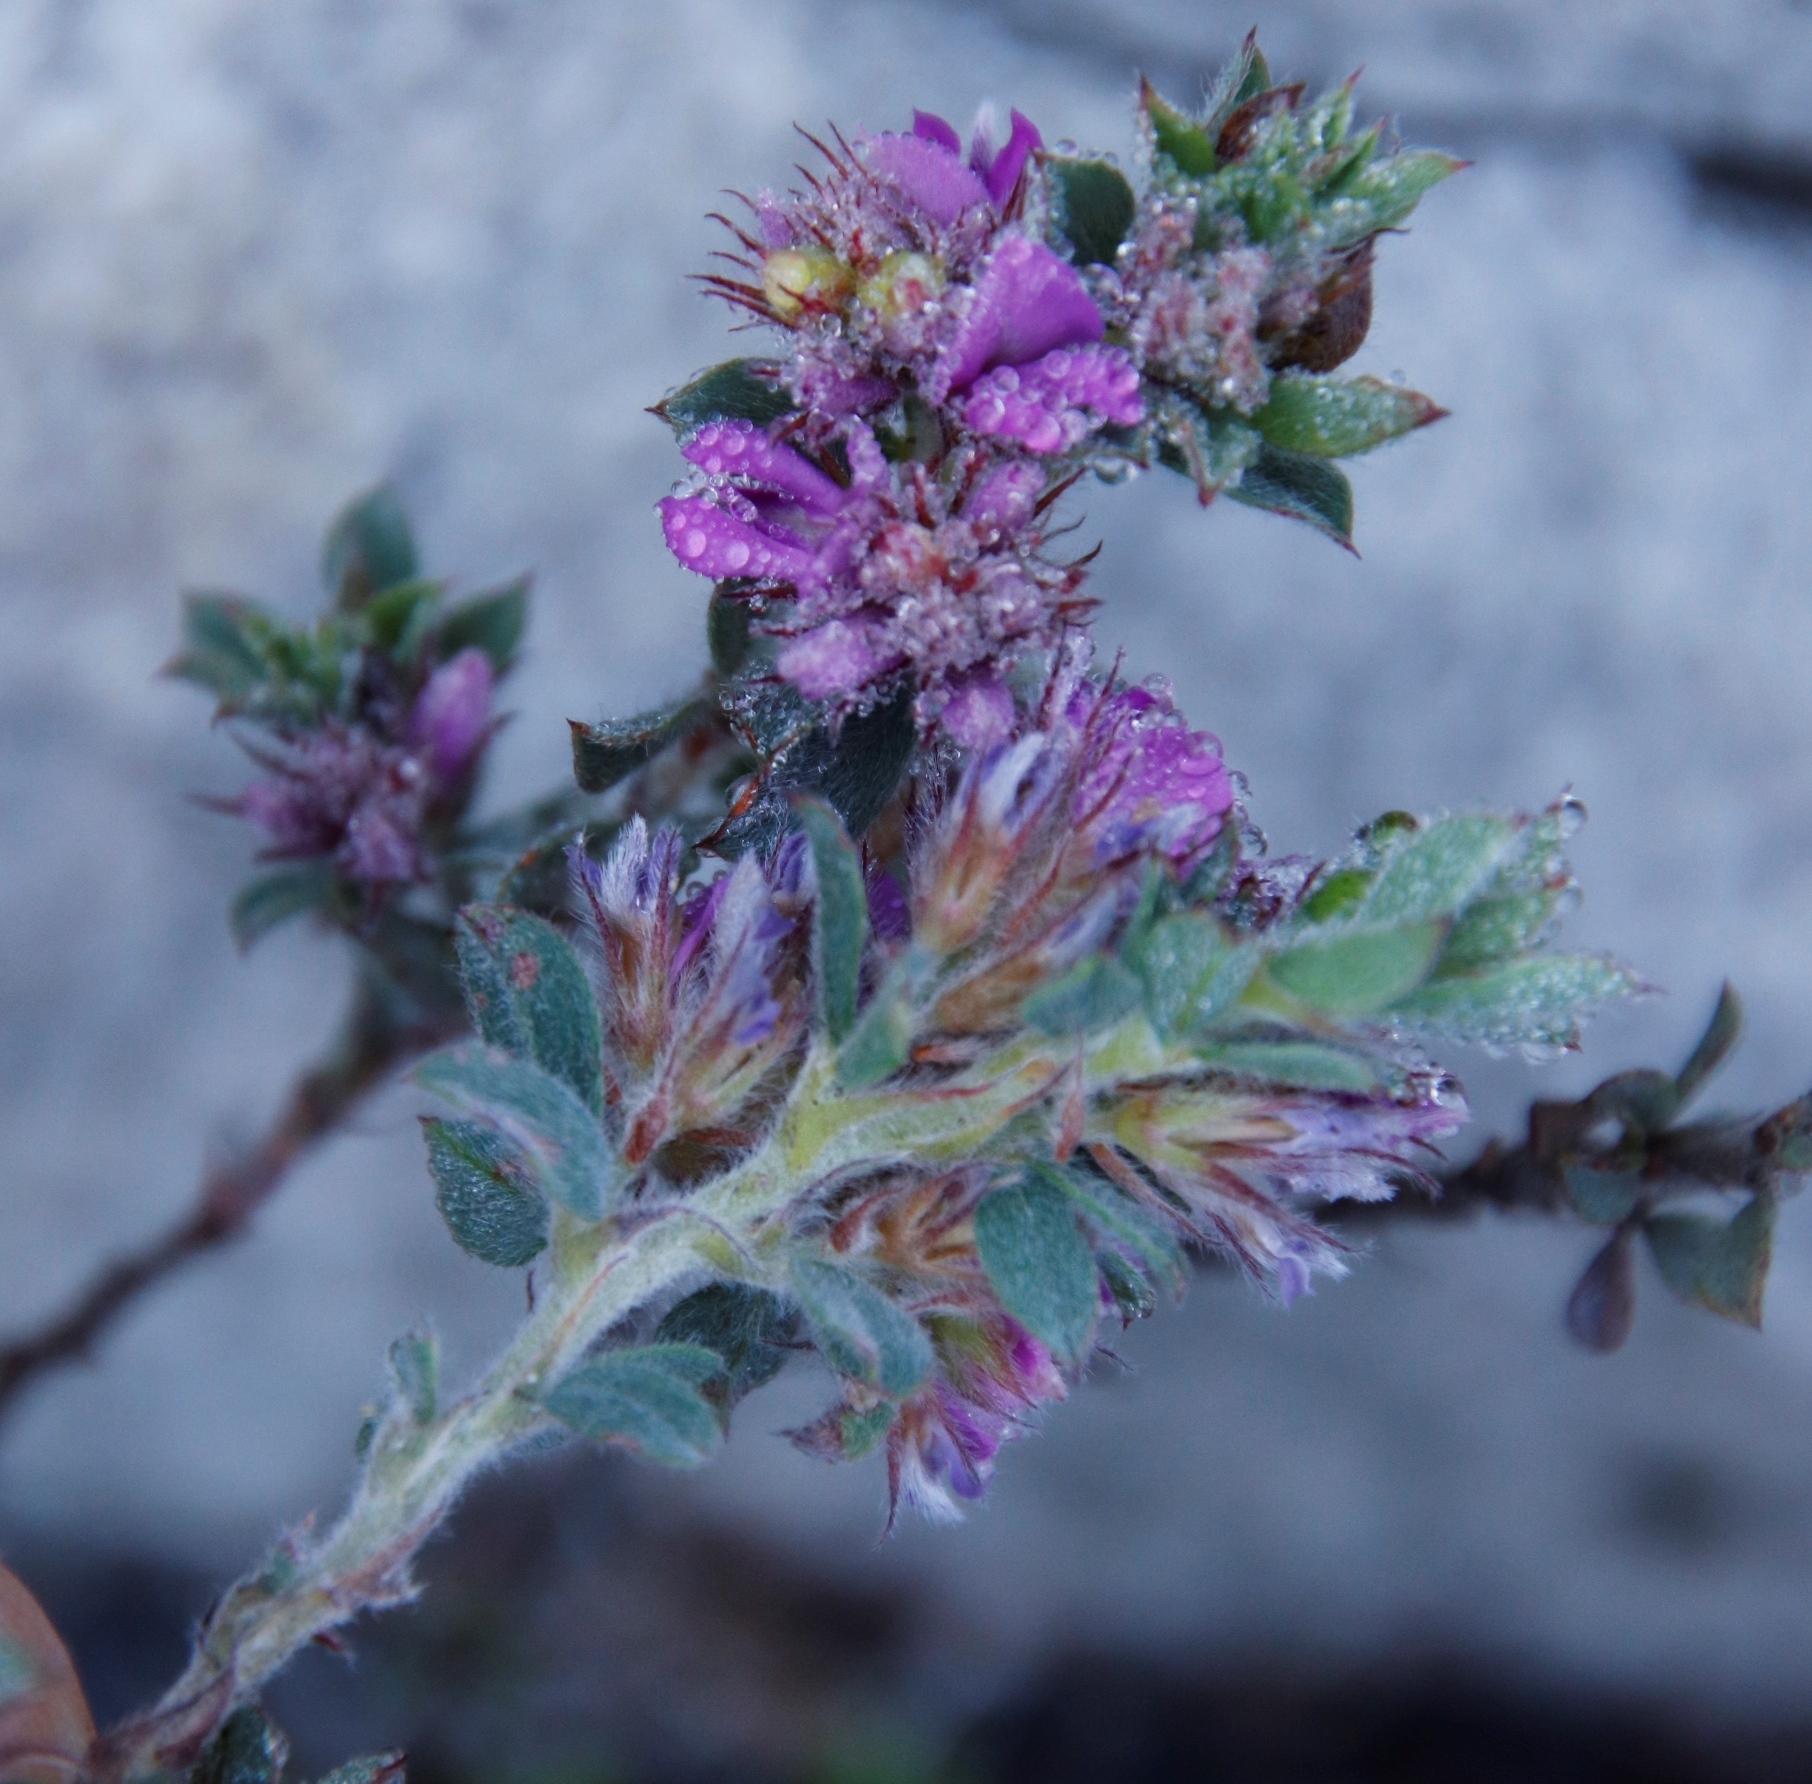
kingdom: Plantae
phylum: Tracheophyta
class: Magnoliopsida
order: Fabales
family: Fabaceae
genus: Indigofera
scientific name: Indigofera glomerata
